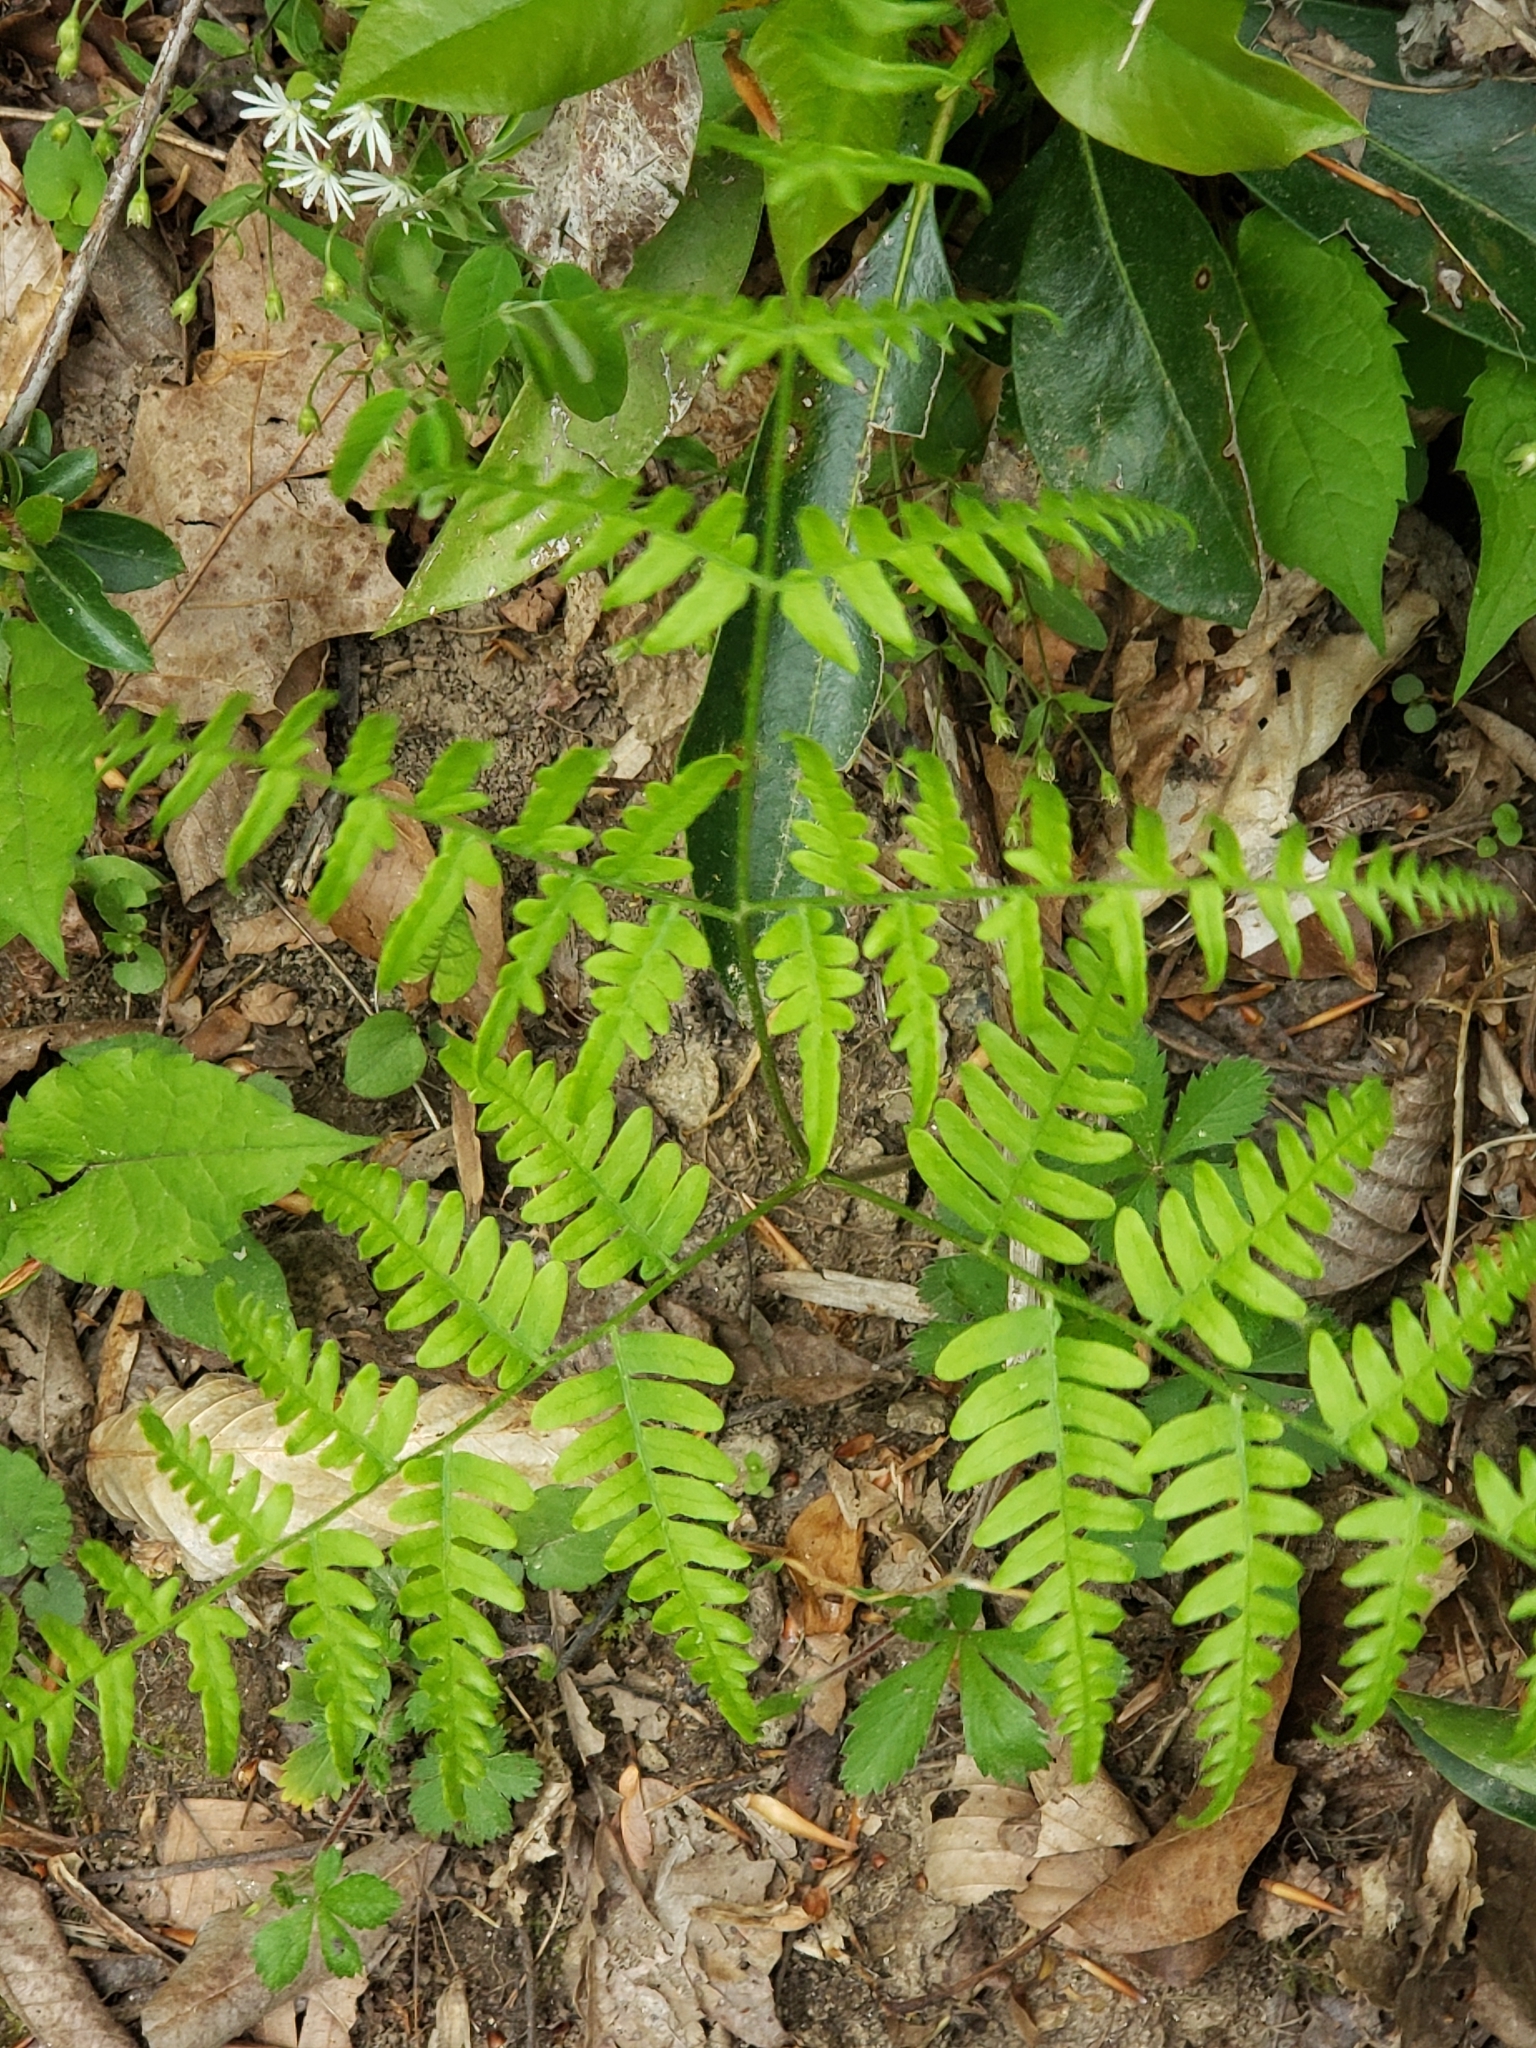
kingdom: Plantae
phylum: Tracheophyta
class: Polypodiopsida
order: Polypodiales
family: Dennstaedtiaceae
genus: Pteridium
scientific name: Pteridium aquilinum
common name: Bracken
